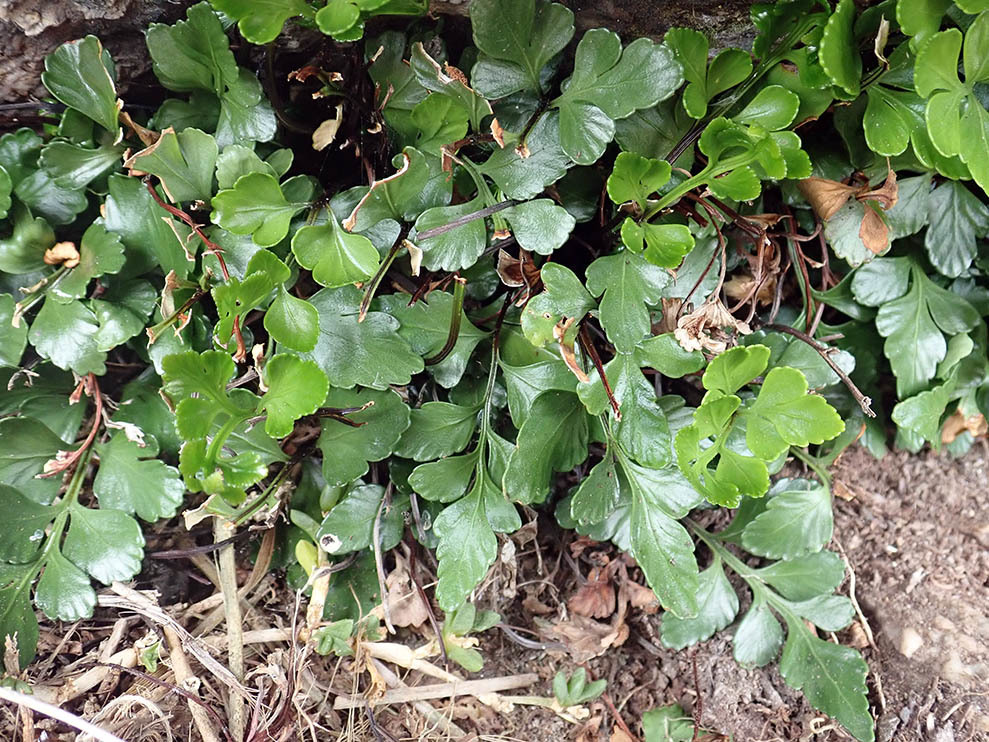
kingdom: Plantae
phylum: Tracheophyta
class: Polypodiopsida
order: Polypodiales
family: Aspleniaceae
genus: Asplenium
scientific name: Asplenium pauperequitum
